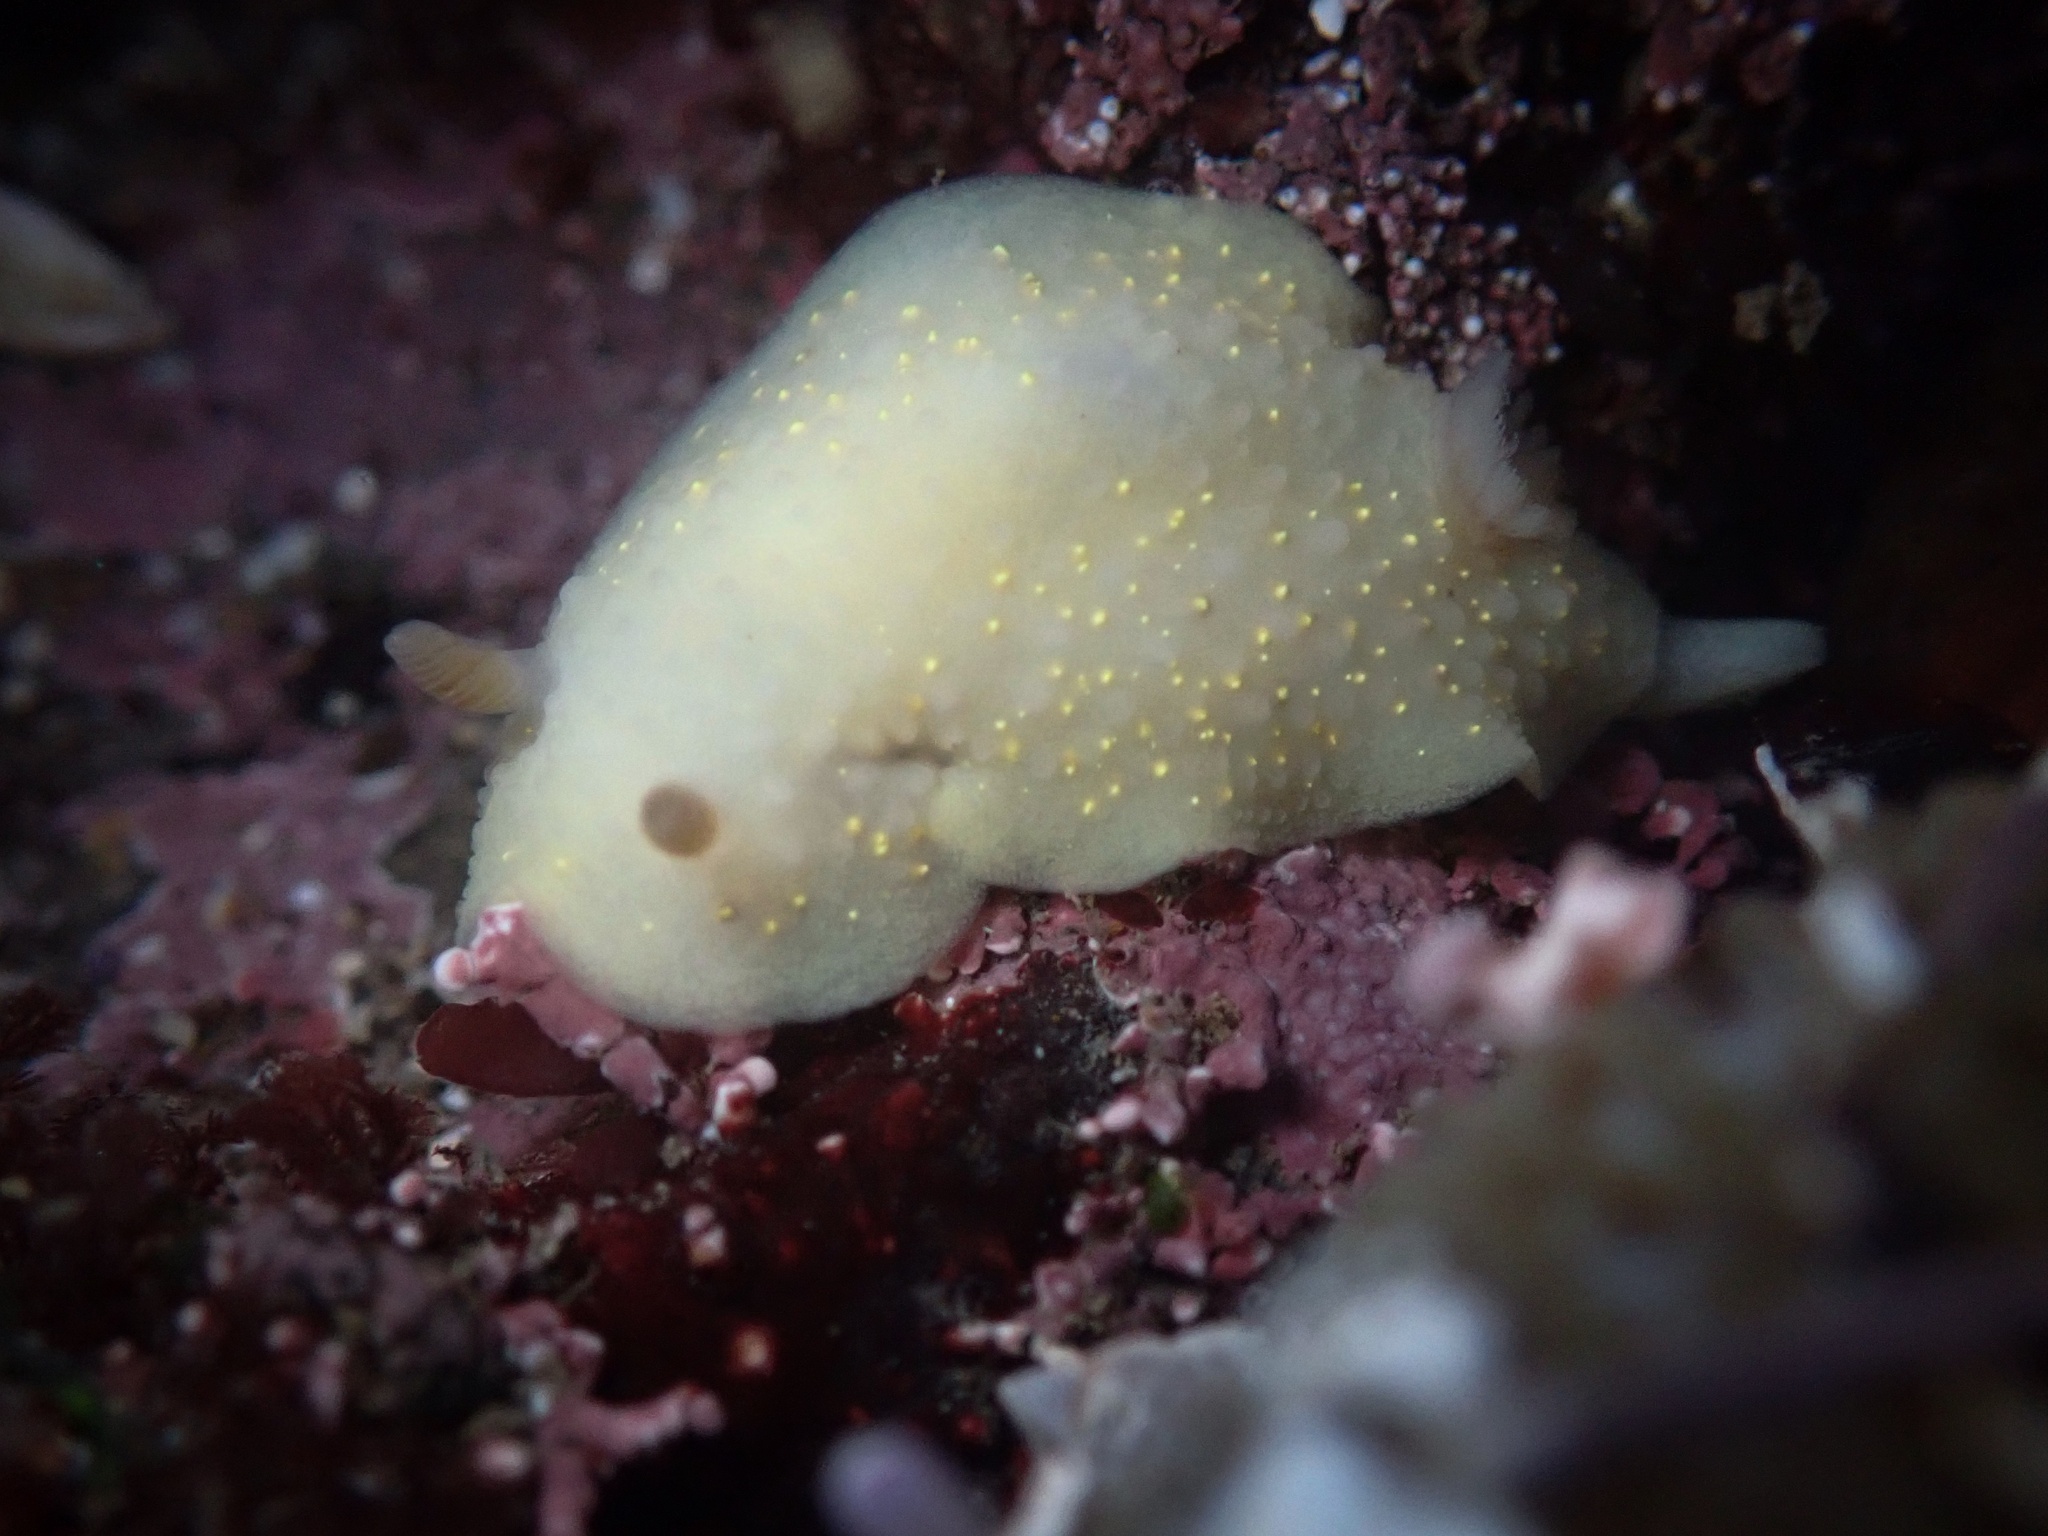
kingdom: Animalia
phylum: Mollusca
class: Gastropoda
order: Nudibranchia
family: Cadlinidae
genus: Cadlina
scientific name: Cadlina modesta
